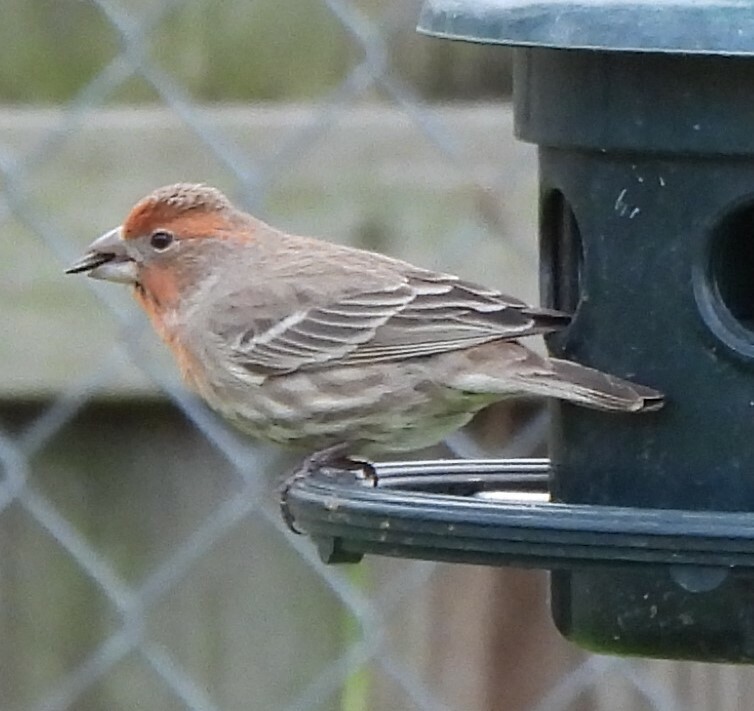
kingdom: Animalia
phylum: Chordata
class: Aves
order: Passeriformes
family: Fringillidae
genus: Haemorhous
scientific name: Haemorhous mexicanus
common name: House finch
